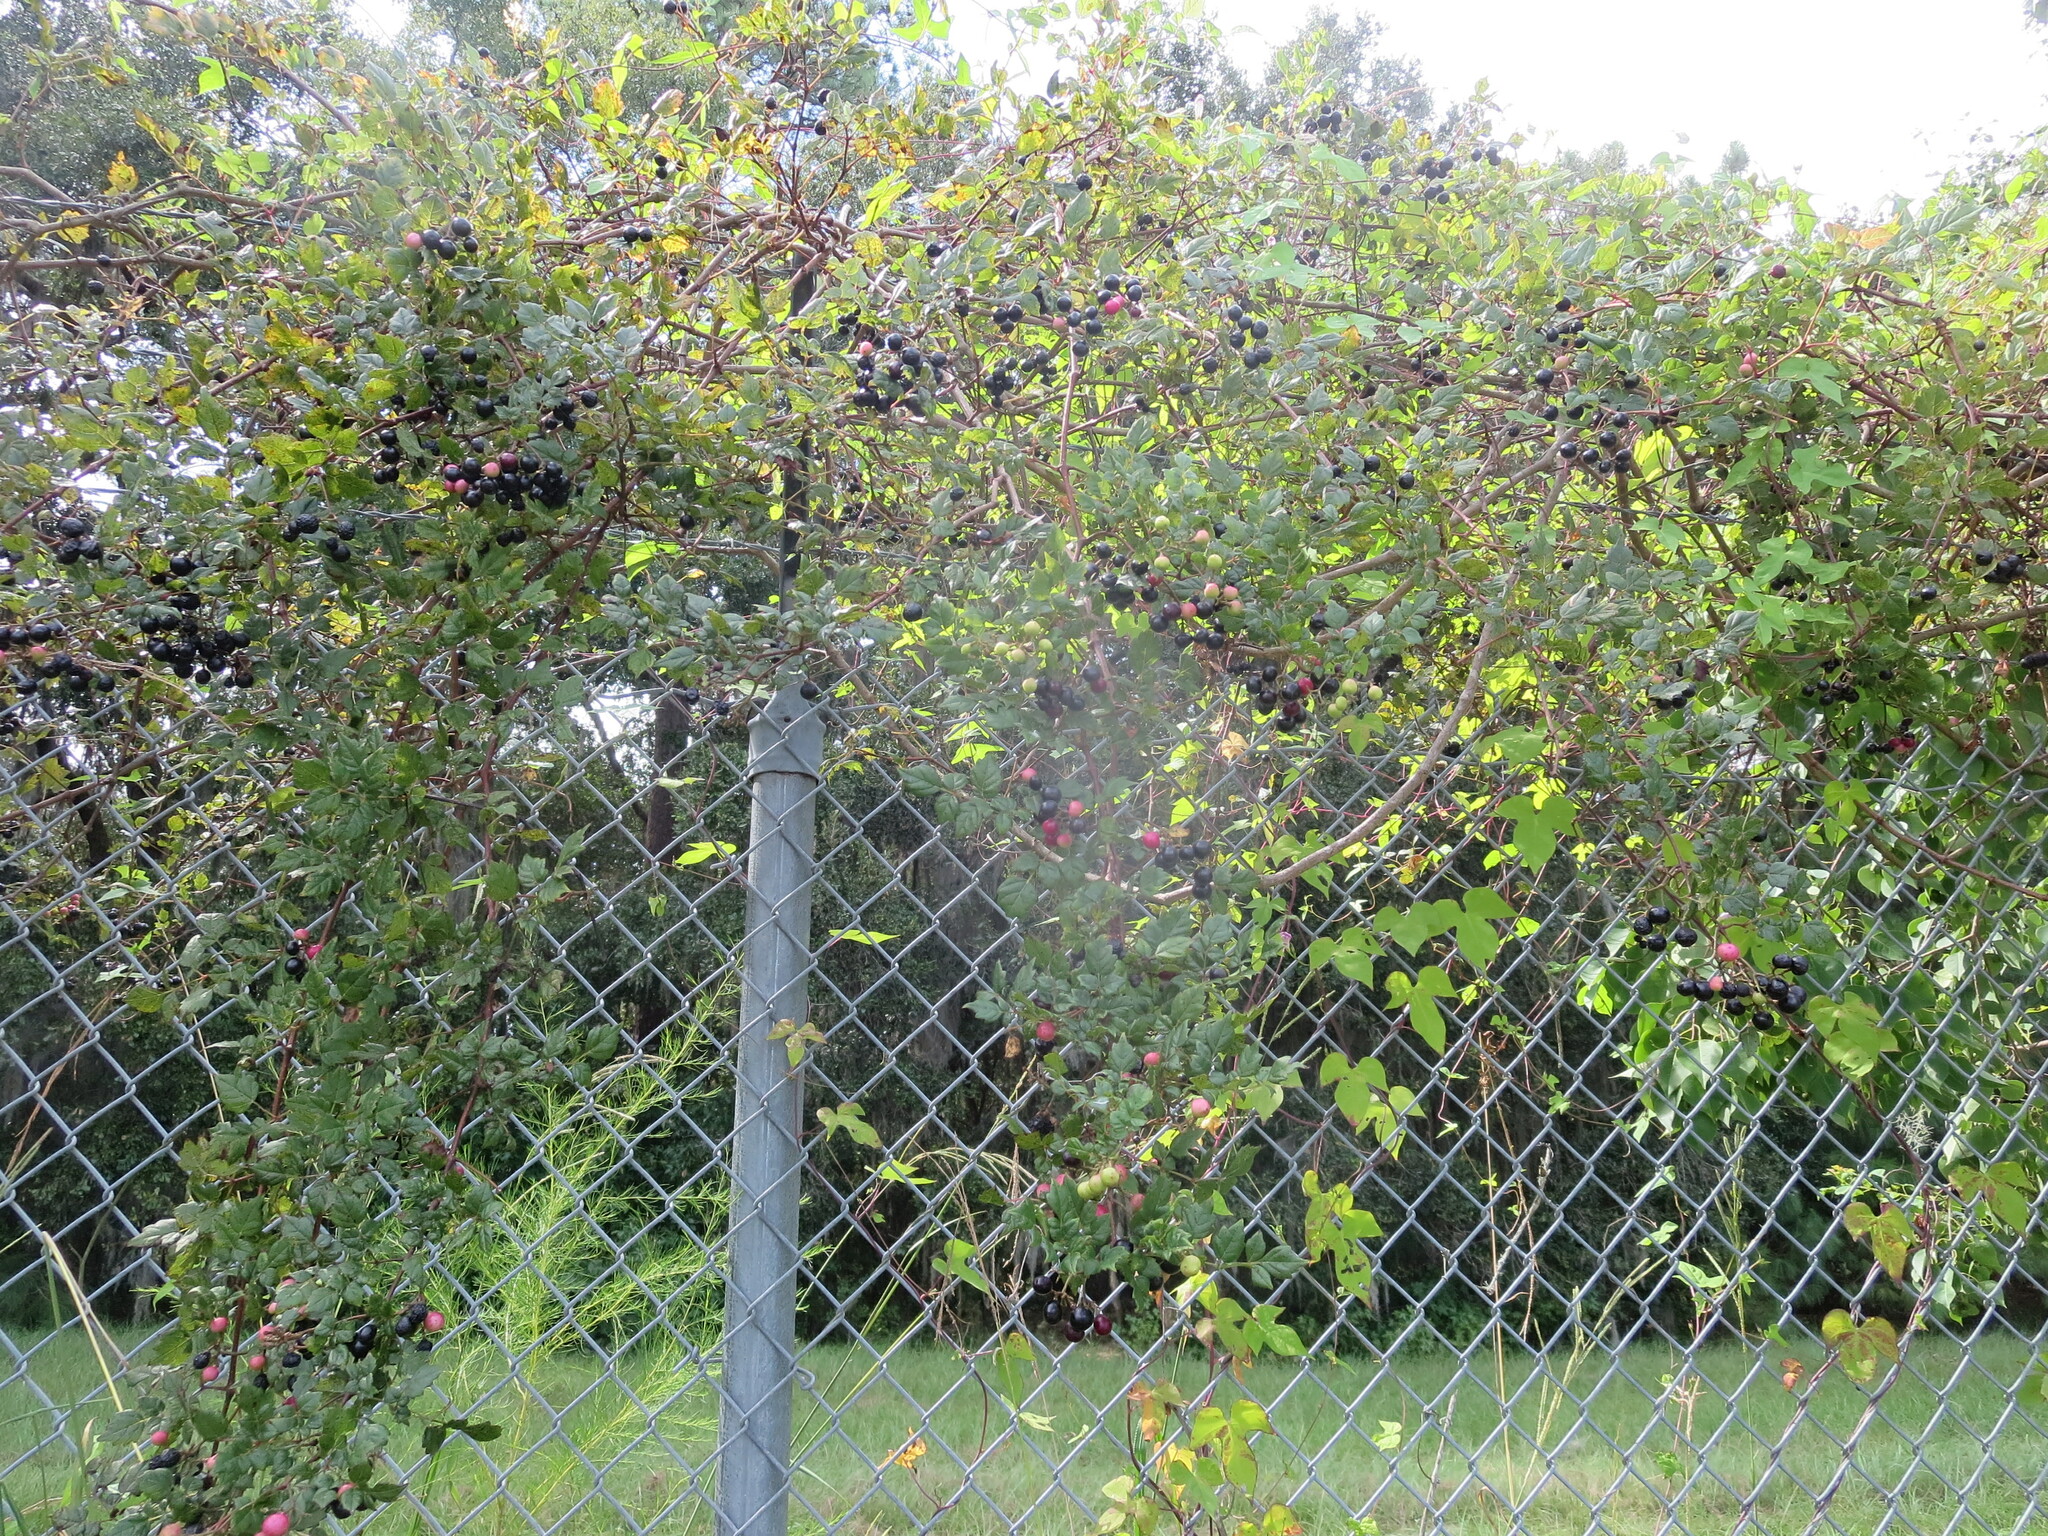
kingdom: Plantae
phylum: Tracheophyta
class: Magnoliopsida
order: Vitales
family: Vitaceae
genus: Nekemias
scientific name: Nekemias arborea
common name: Peppervine
